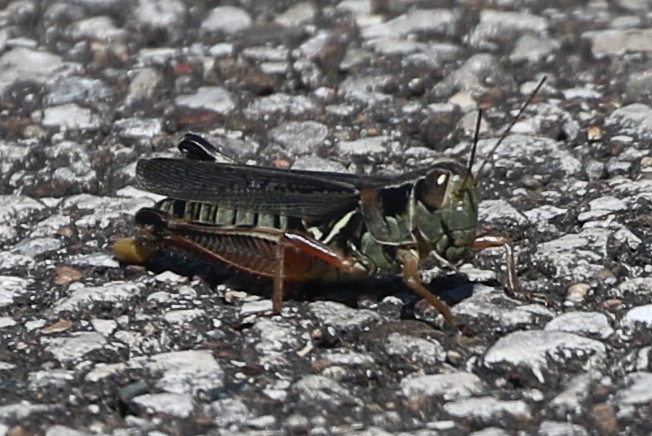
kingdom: Animalia
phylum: Arthropoda
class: Insecta
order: Orthoptera
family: Acrididae
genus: Melanoplus
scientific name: Melanoplus femurrubrum
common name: Red-legged grasshopper
